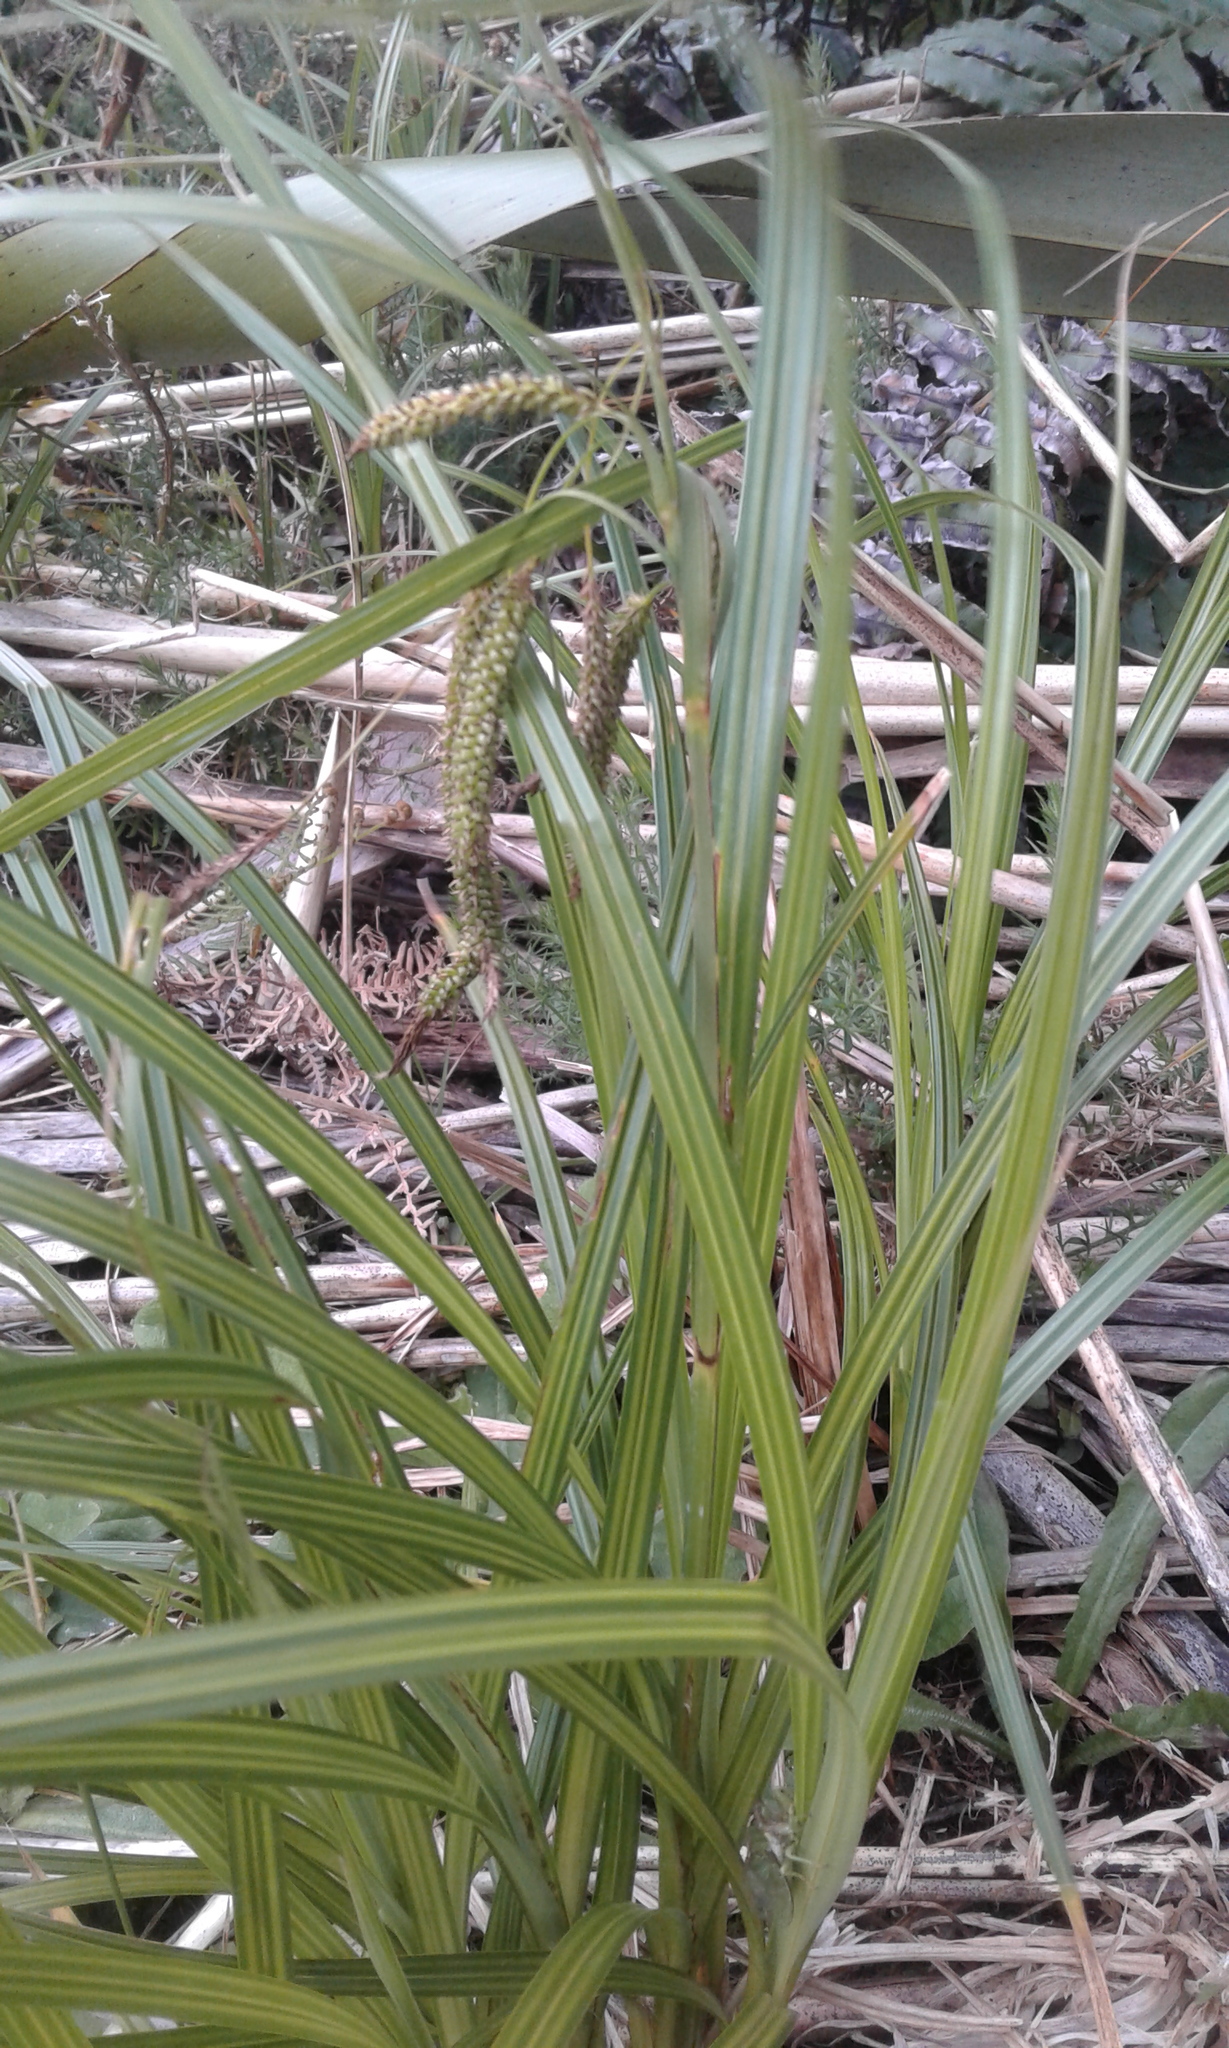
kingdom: Plantae
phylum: Tracheophyta
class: Liliopsida
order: Poales
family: Cyperaceae
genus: Carex
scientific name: Carex
